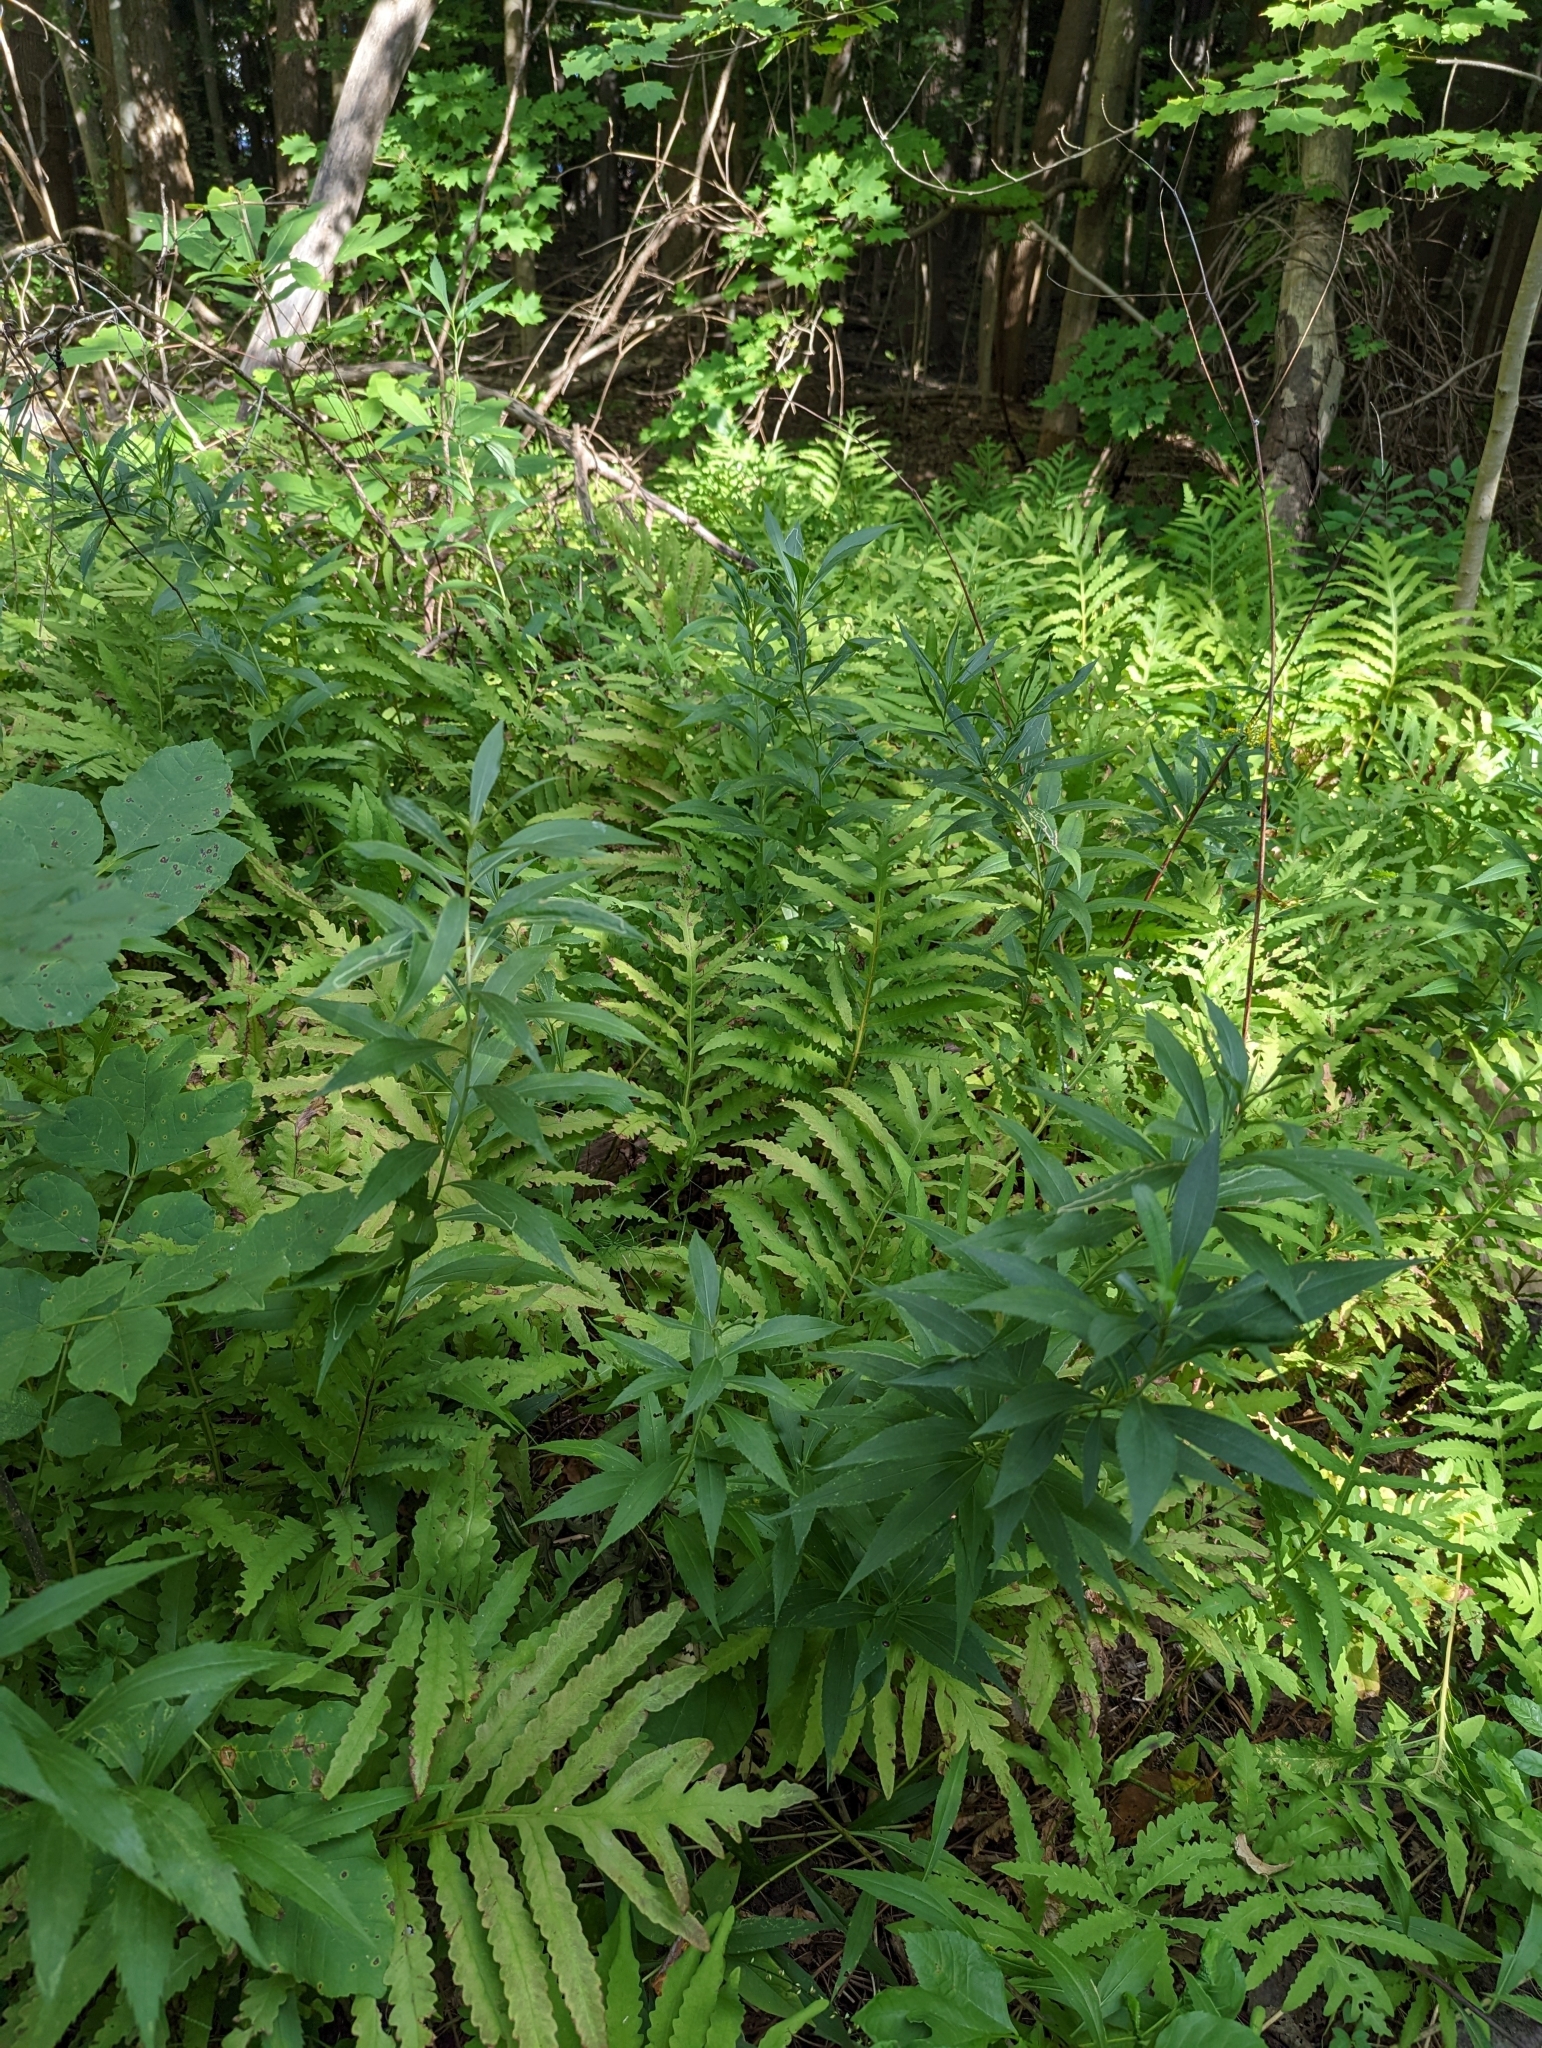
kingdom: Plantae
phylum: Tracheophyta
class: Polypodiopsida
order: Polypodiales
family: Onocleaceae
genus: Onoclea
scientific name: Onoclea sensibilis
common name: Sensitive fern
